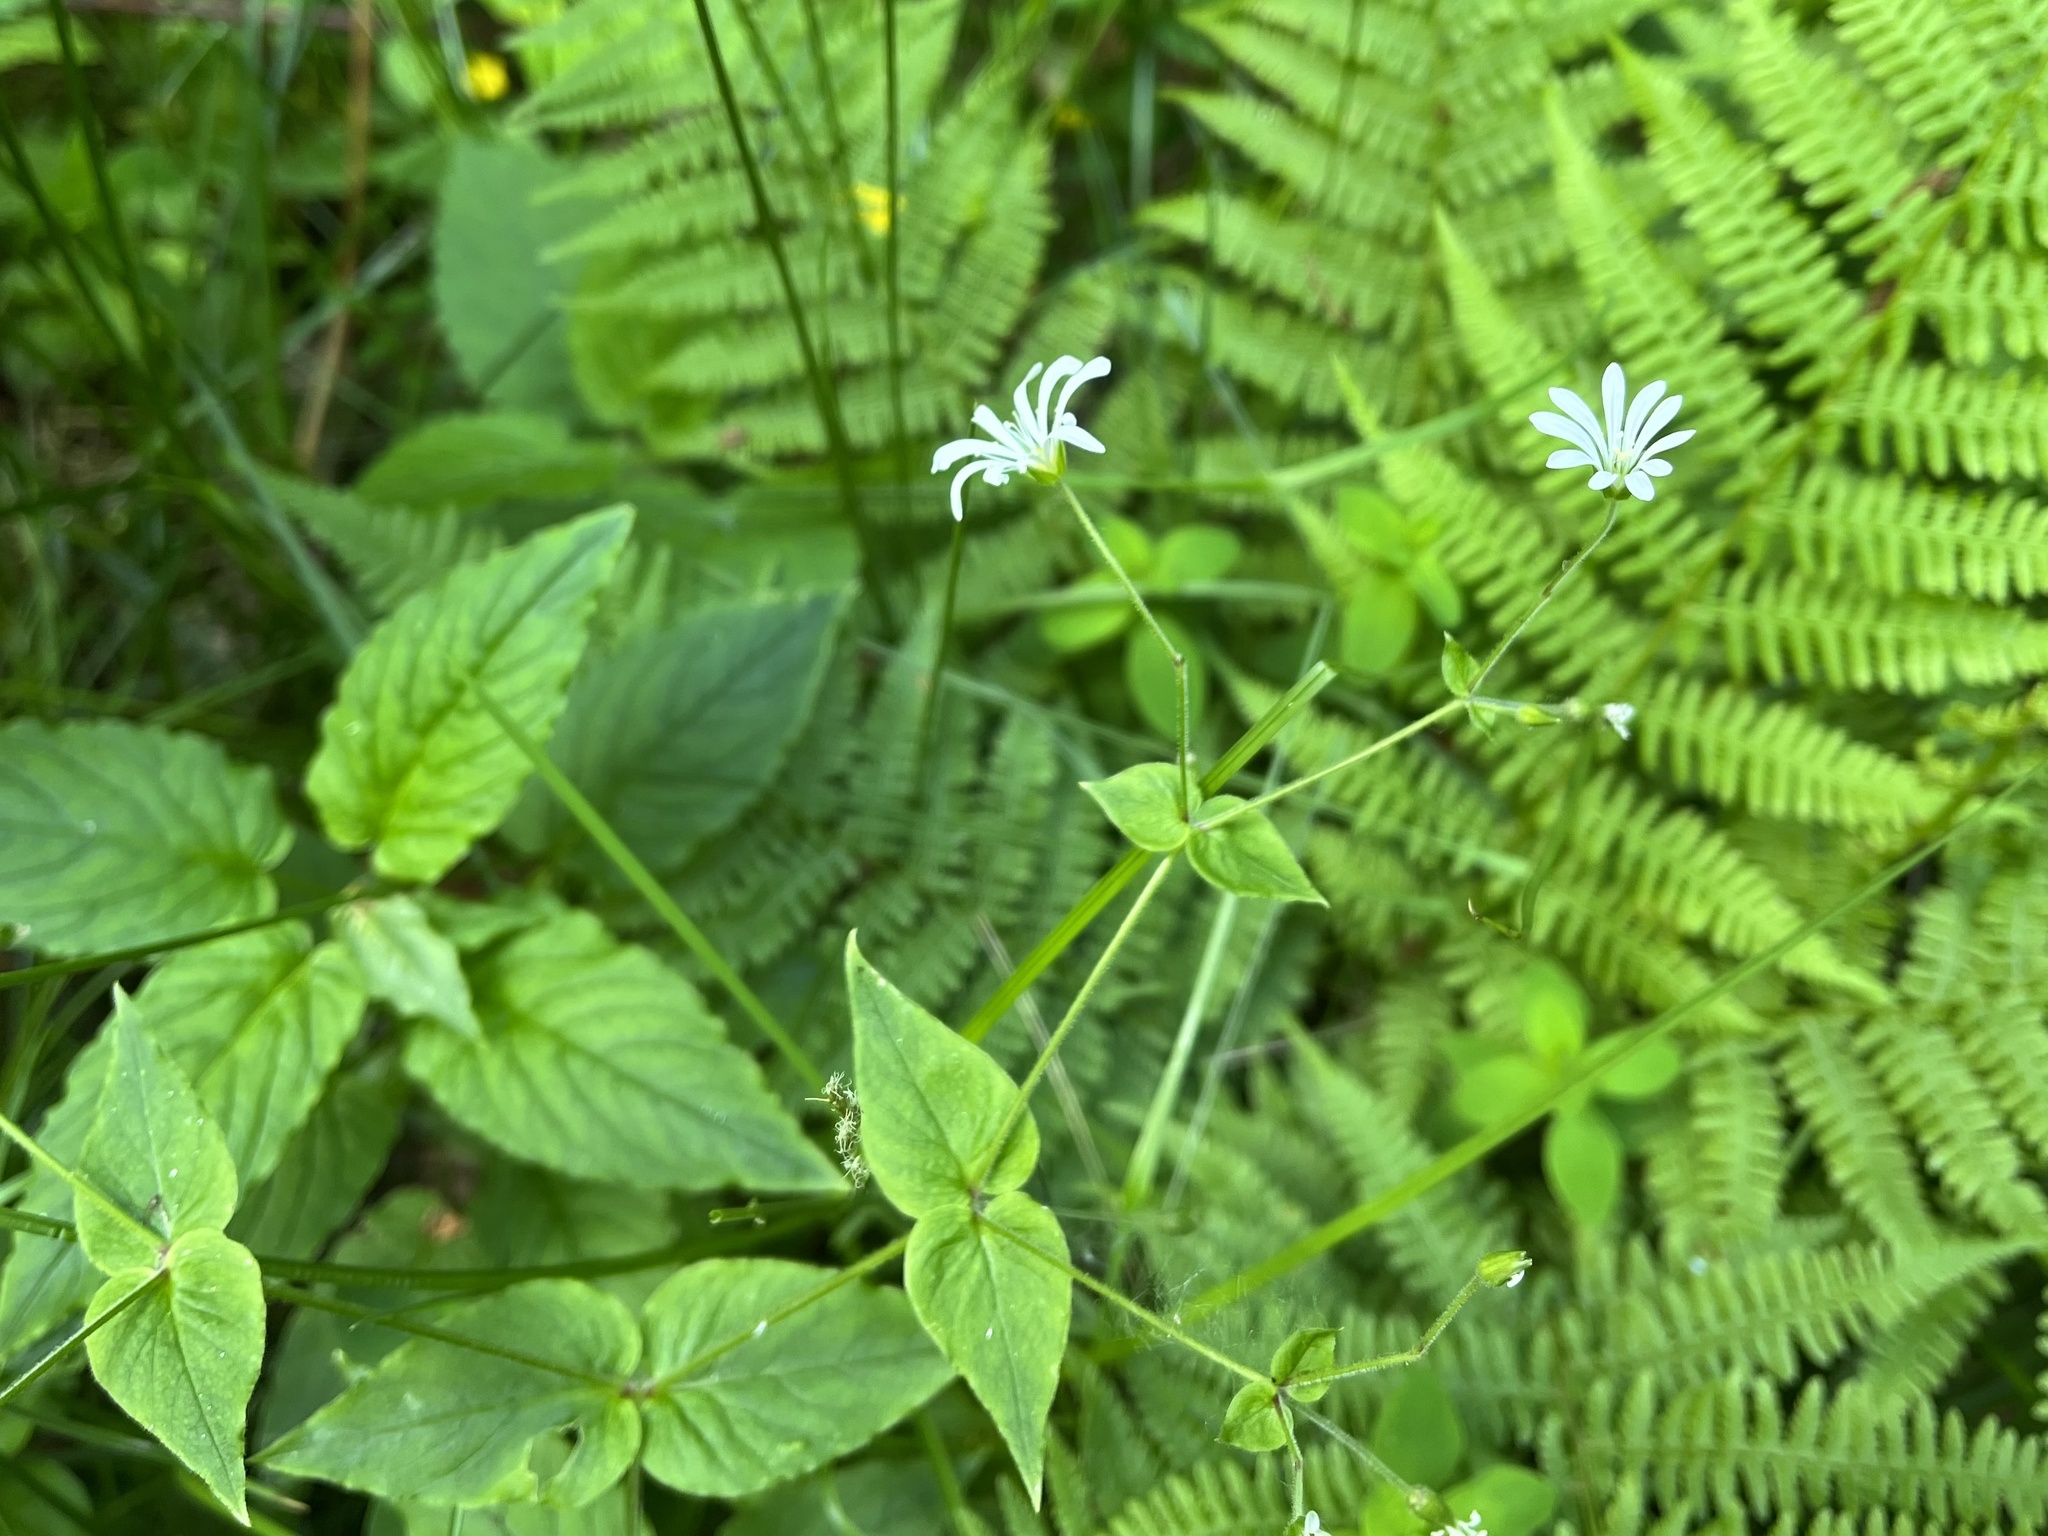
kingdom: Plantae
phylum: Tracheophyta
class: Magnoliopsida
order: Caryophyllales
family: Caryophyllaceae
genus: Stellaria
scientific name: Stellaria nemorum
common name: Wood stitchwort
